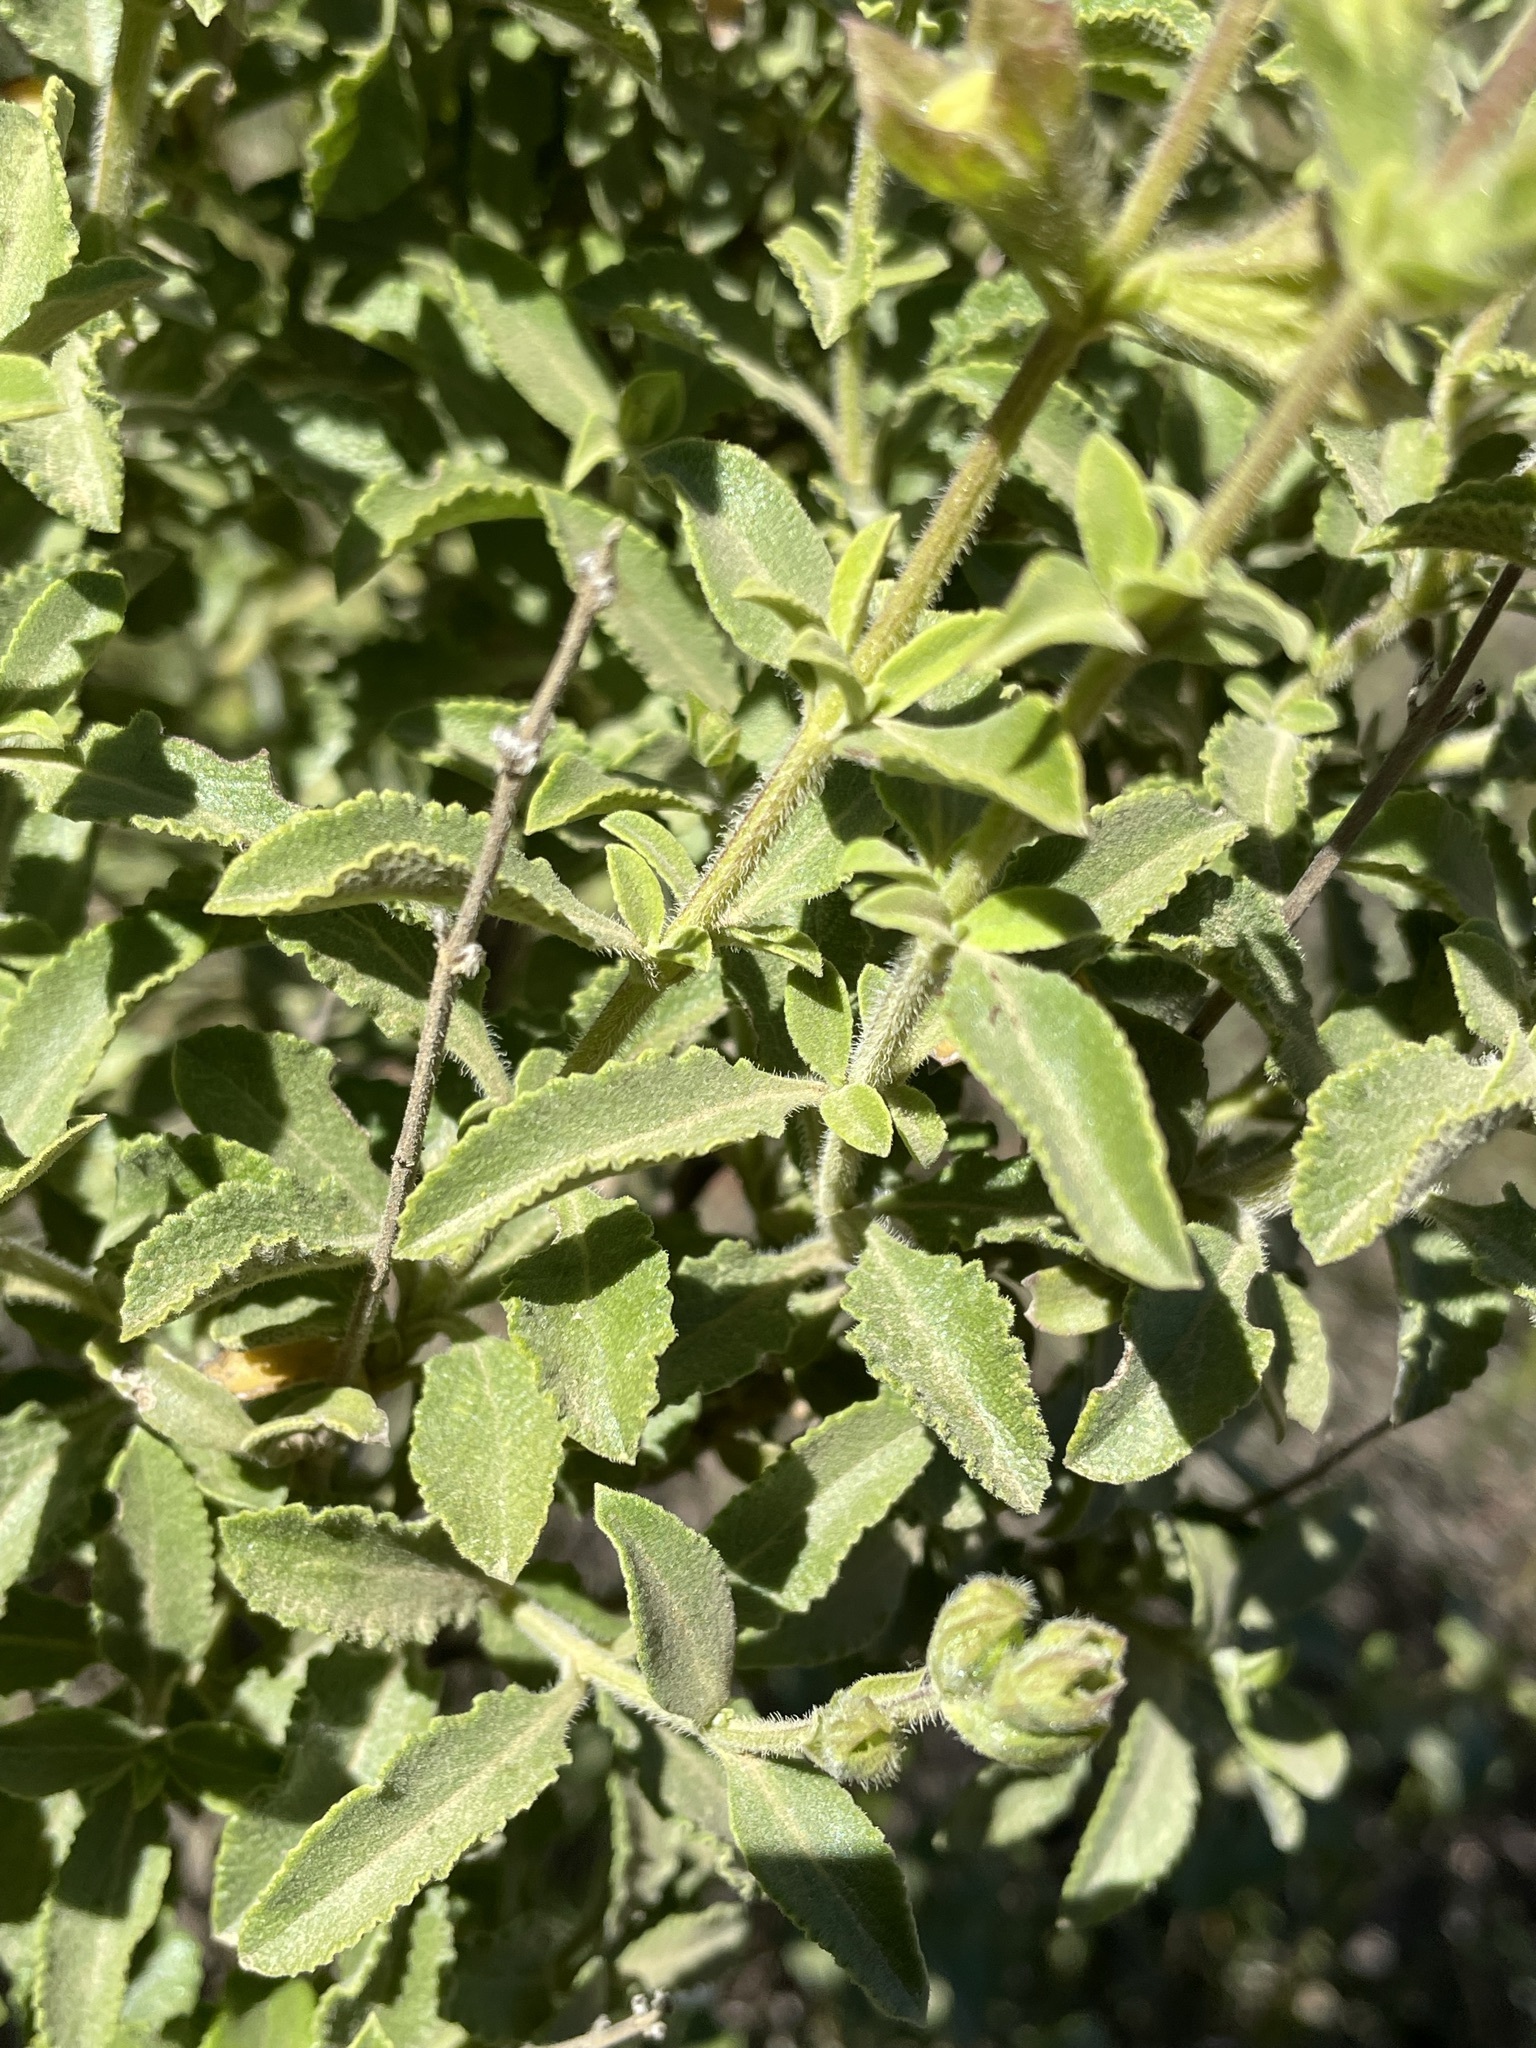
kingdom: Plantae
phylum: Tracheophyta
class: Magnoliopsida
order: Lamiales
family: Lamiaceae
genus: Salvia
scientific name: Salvia africana
